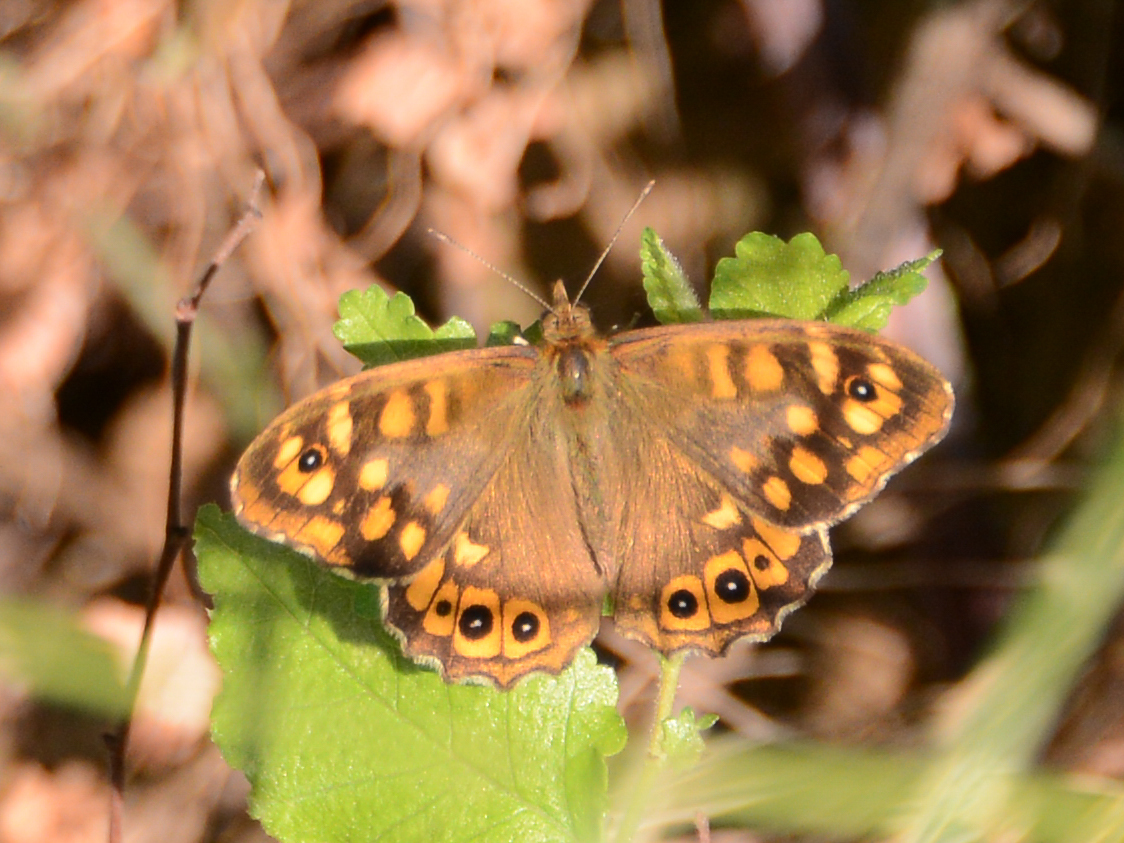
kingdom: Animalia
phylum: Arthropoda
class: Insecta
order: Lepidoptera
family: Nymphalidae
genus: Pararge
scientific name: Pararge aegeria
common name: Speckled wood
